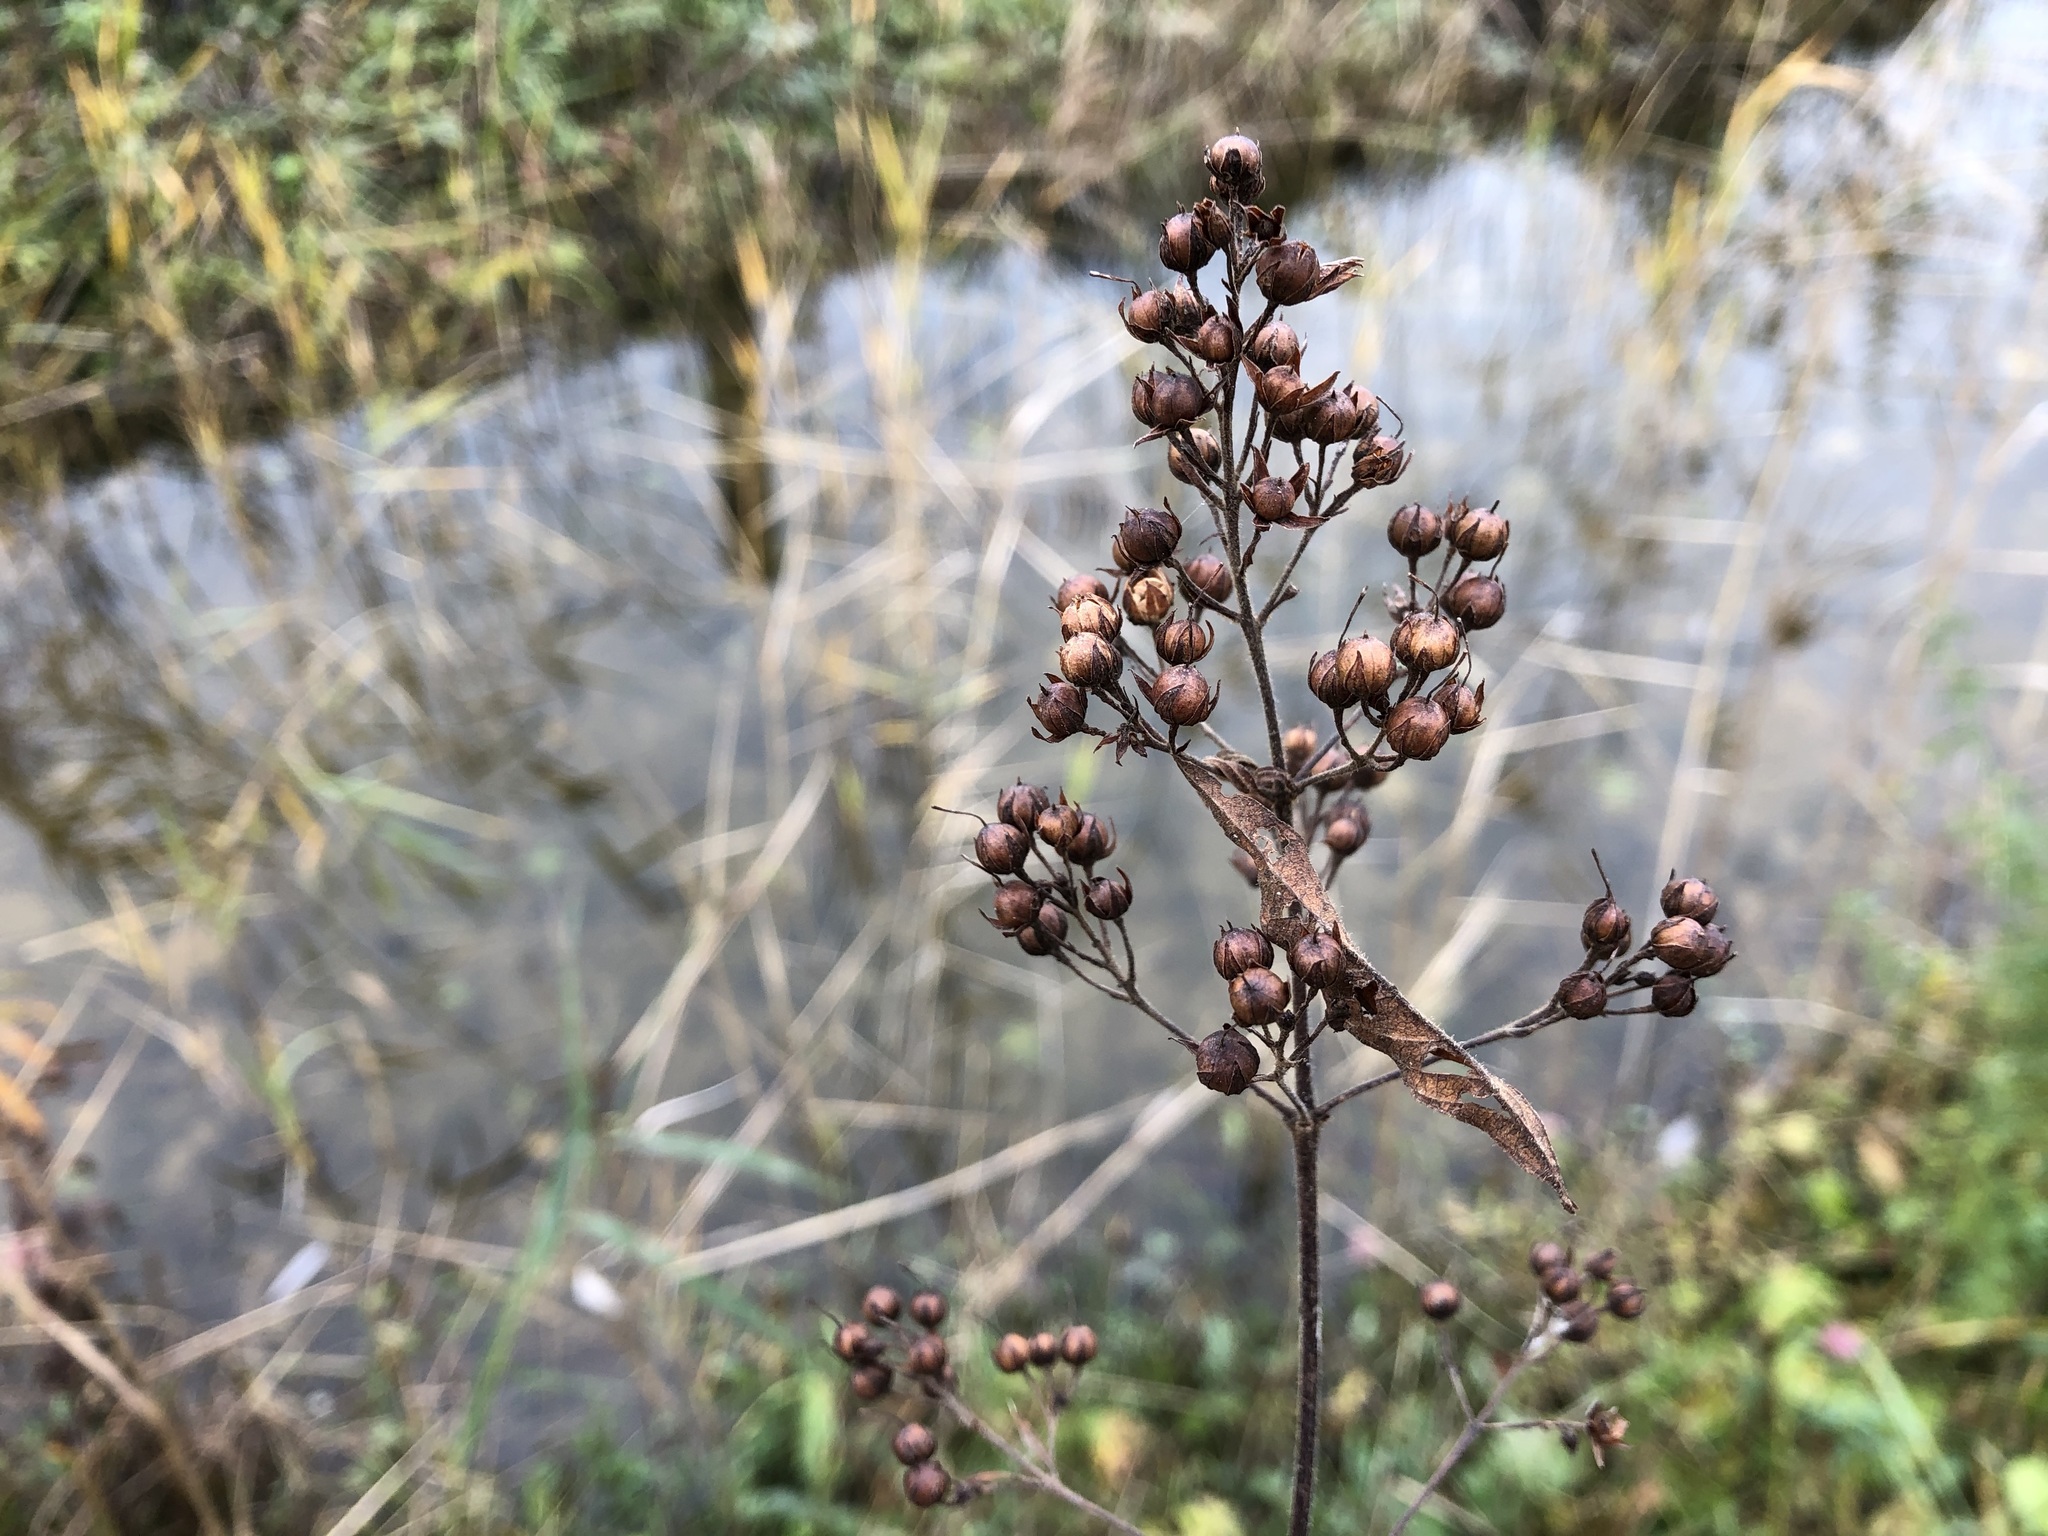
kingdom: Plantae
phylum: Tracheophyta
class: Magnoliopsida
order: Ericales
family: Primulaceae
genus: Lysimachia
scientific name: Lysimachia vulgaris
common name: Yellow loosestrife
